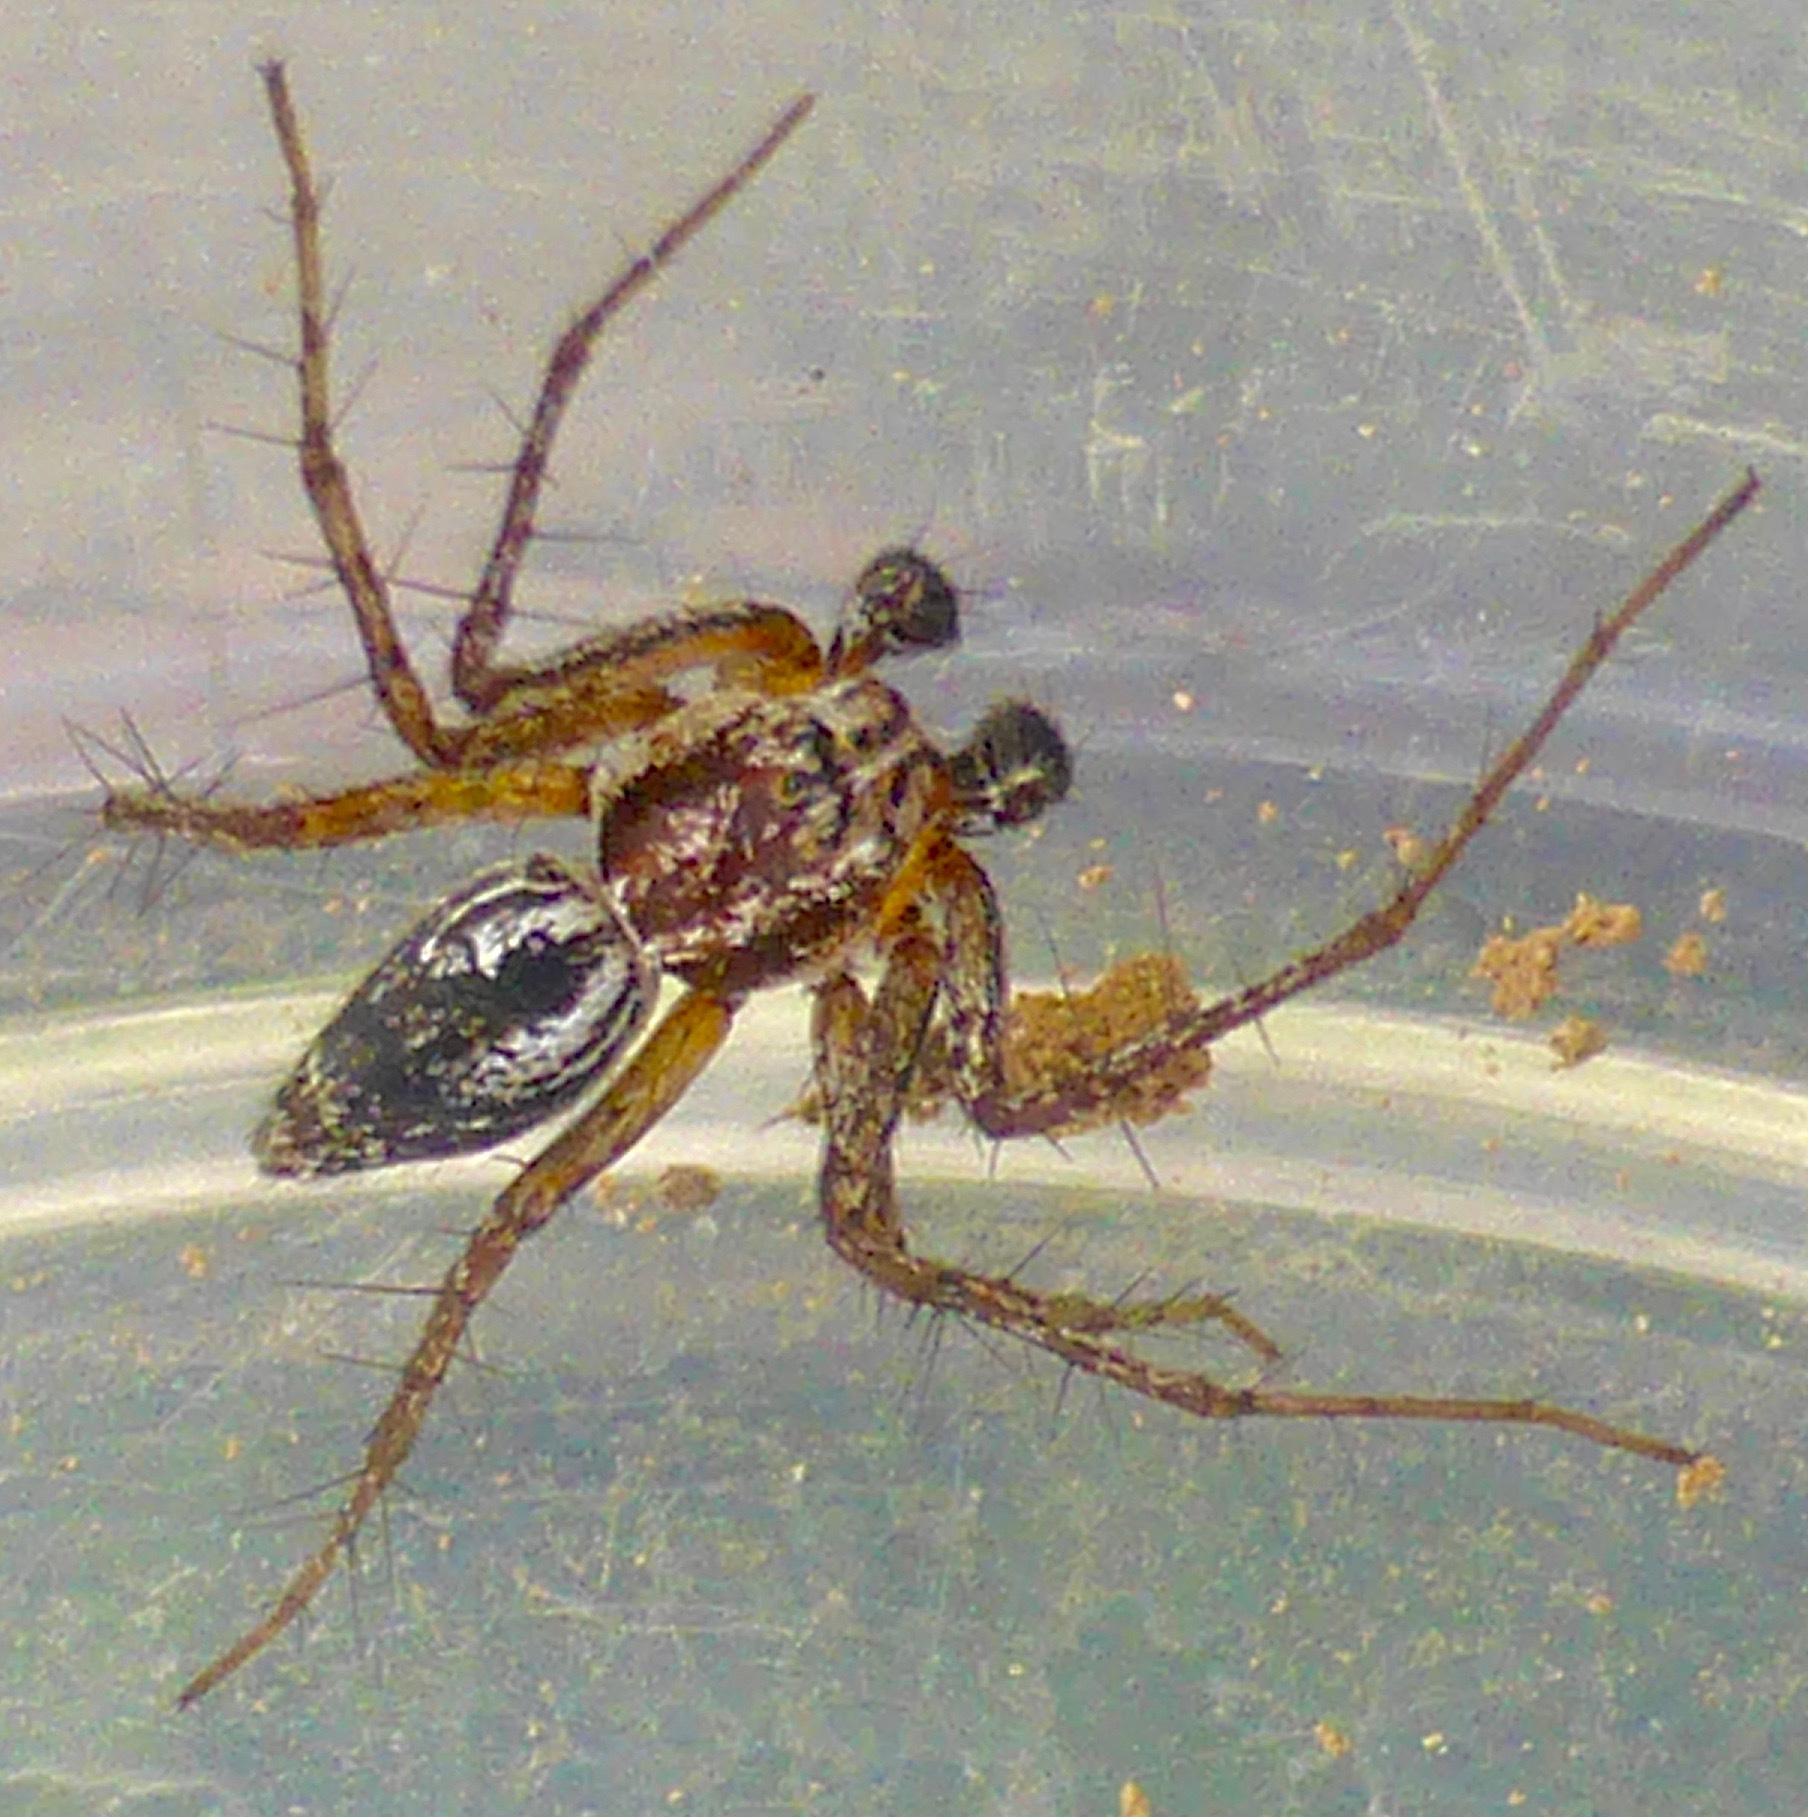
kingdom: Animalia
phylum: Arthropoda
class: Arachnida
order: Araneae
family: Oxyopidae
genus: Oxyopes
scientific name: Oxyopes gracilipes
